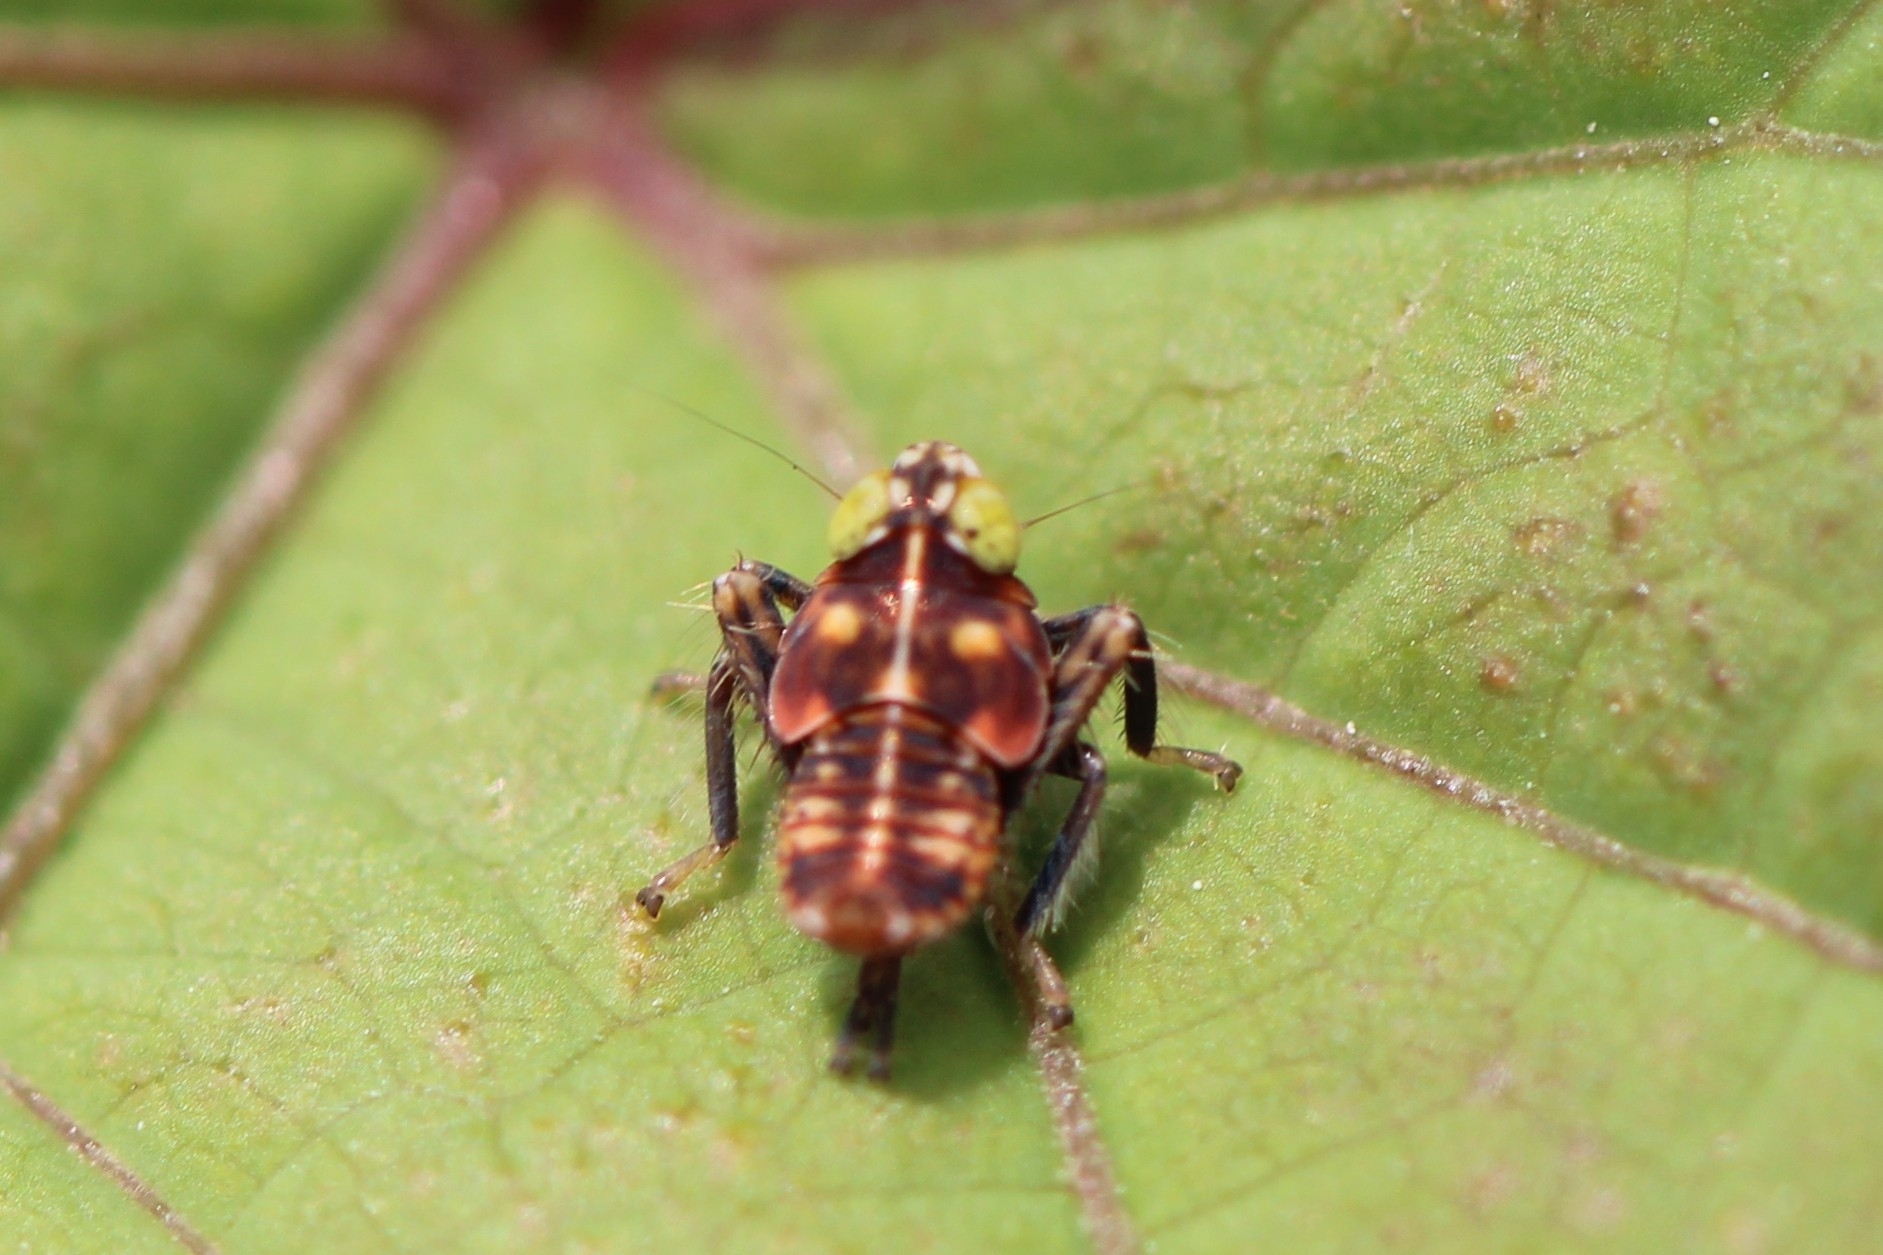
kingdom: Animalia
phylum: Arthropoda
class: Insecta
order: Hemiptera
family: Cicadellidae
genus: Jikradia
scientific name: Jikradia olitoria
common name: Coppery leafhopper
